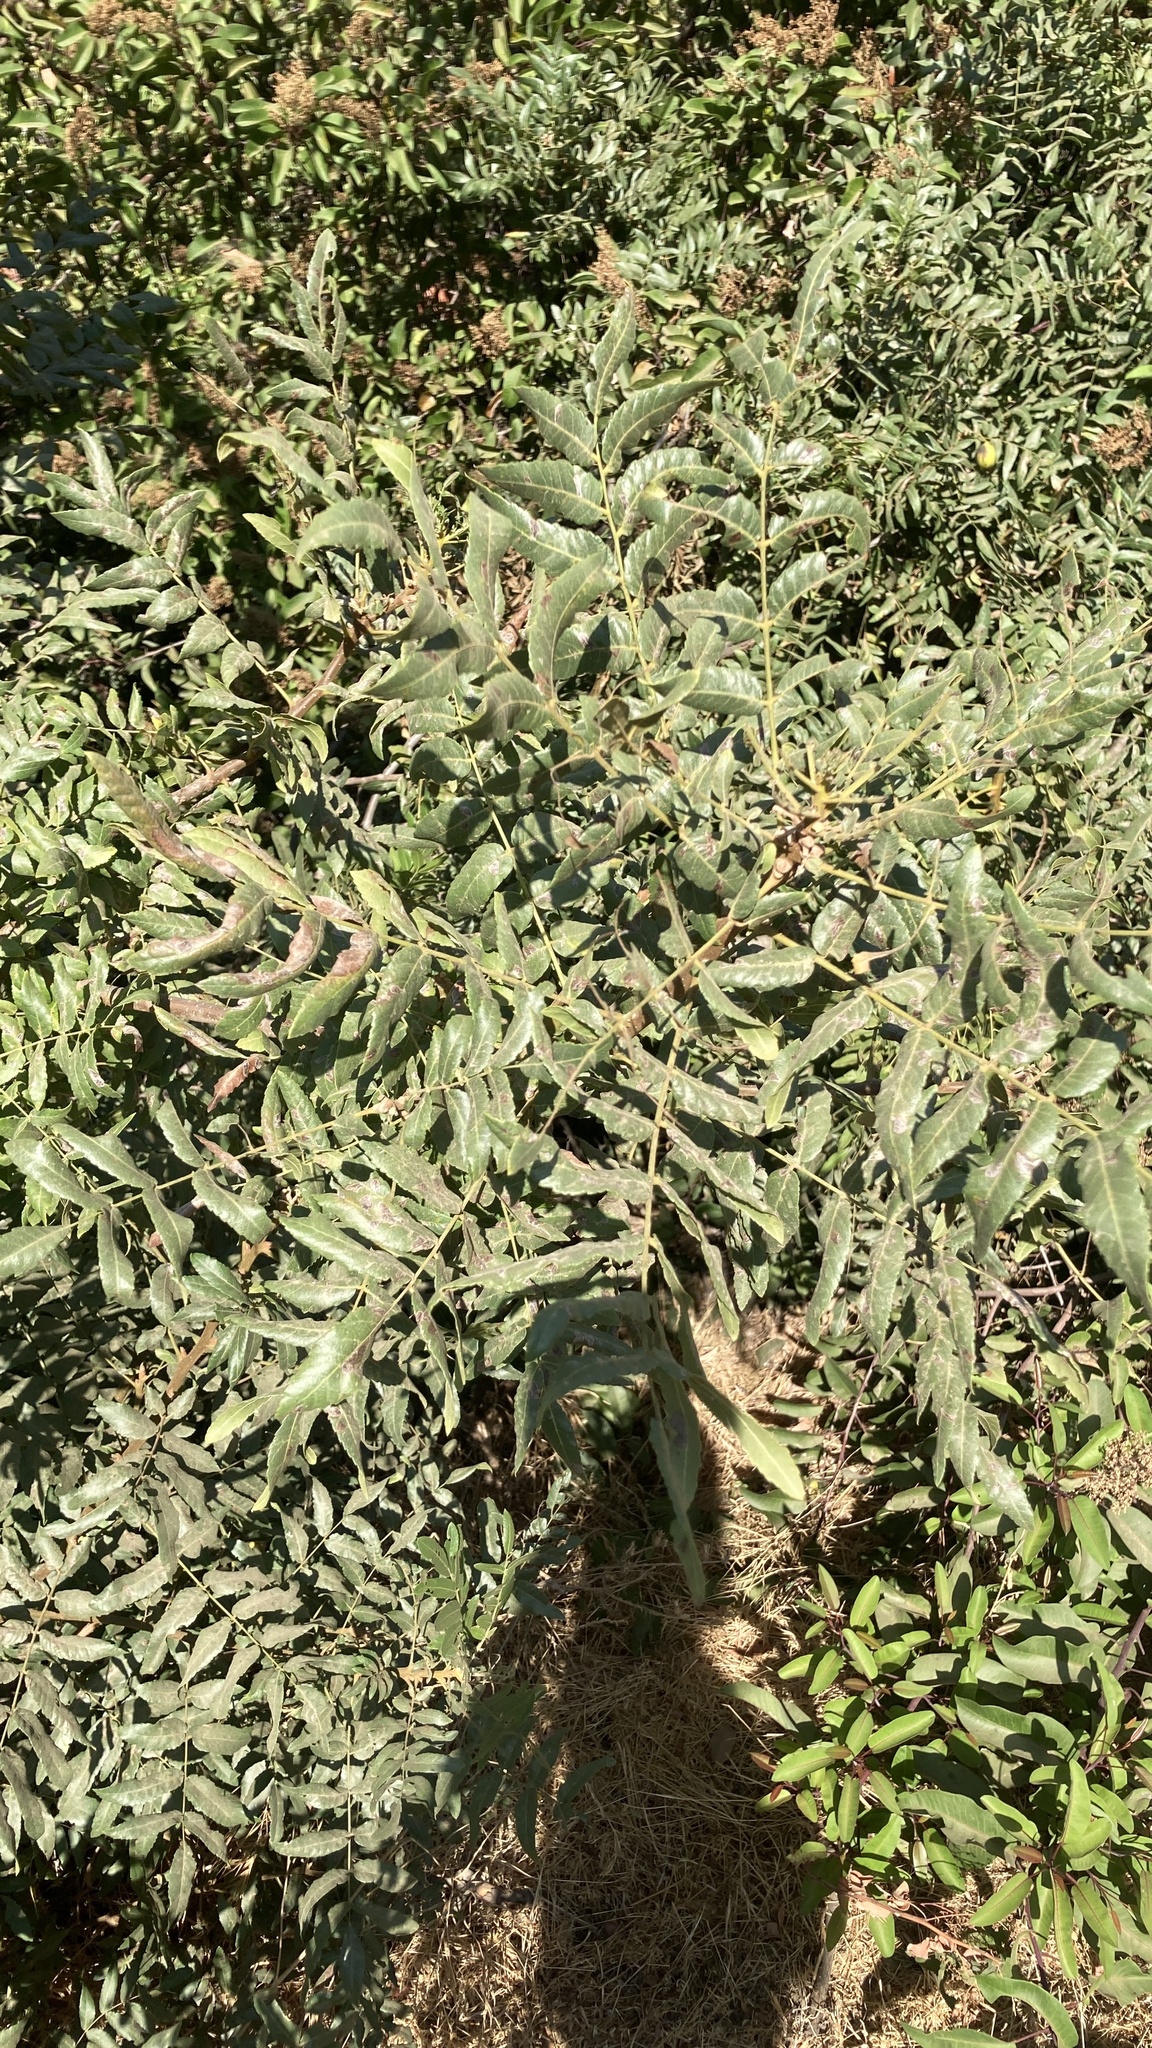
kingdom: Plantae
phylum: Tracheophyta
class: Magnoliopsida
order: Fagales
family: Juglandaceae
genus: Juglans
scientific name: Juglans californica
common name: Southern california black walnut
